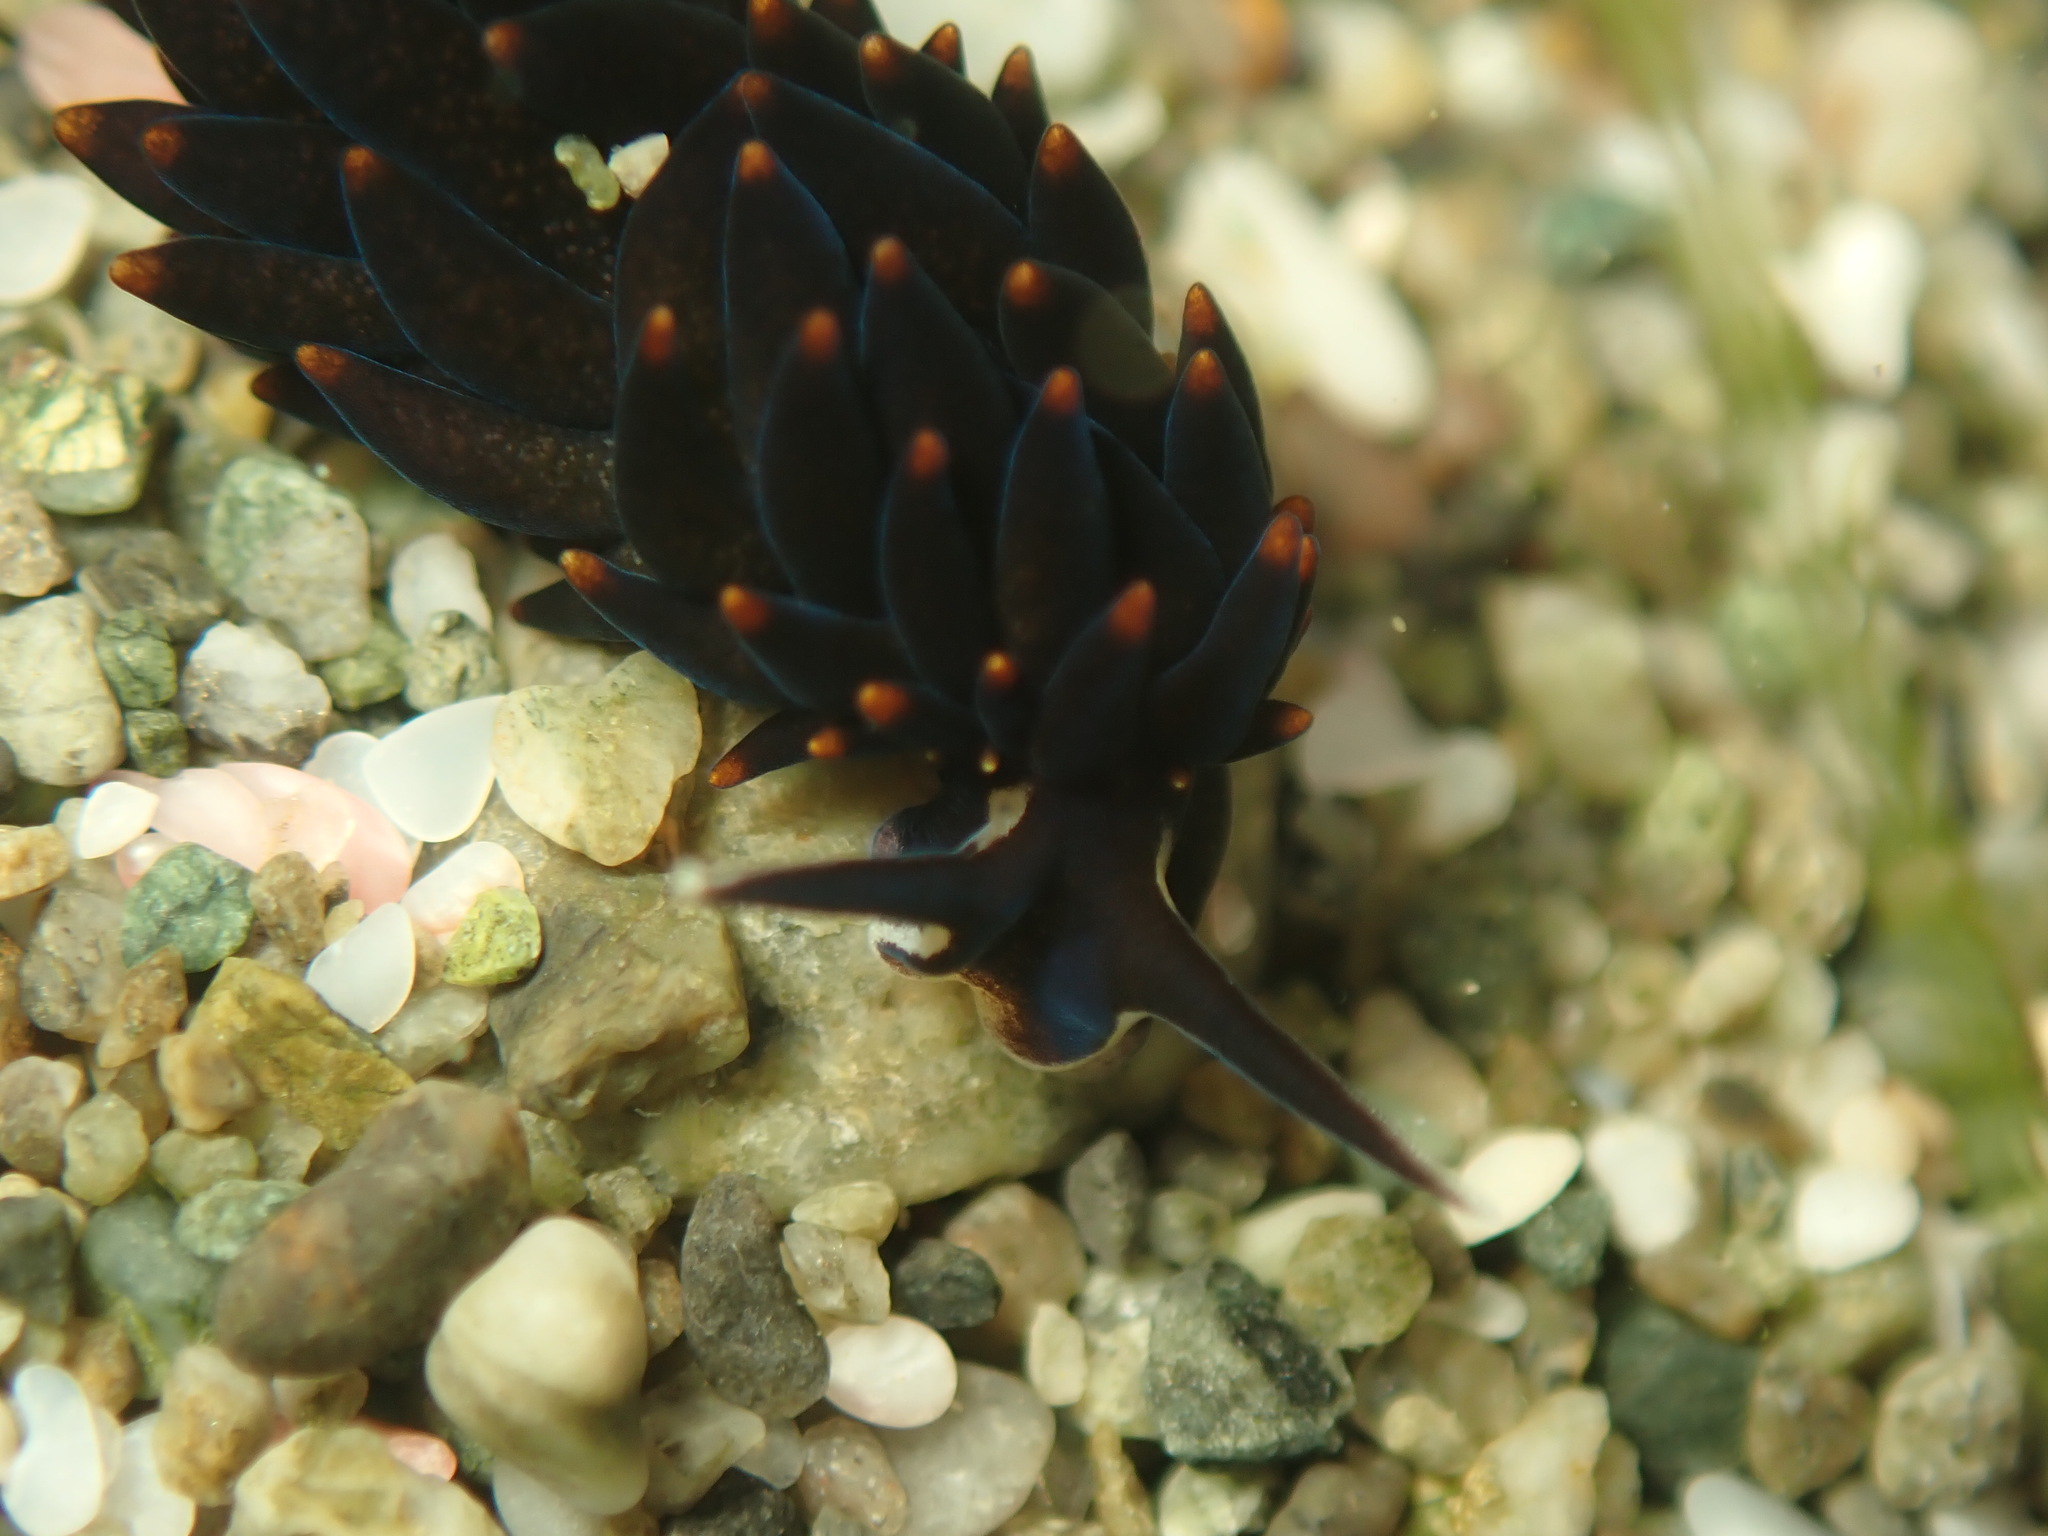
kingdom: Animalia
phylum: Mollusca
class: Gastropoda
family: Limapontiidae
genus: Ercolania
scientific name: Ercolania boodleae
